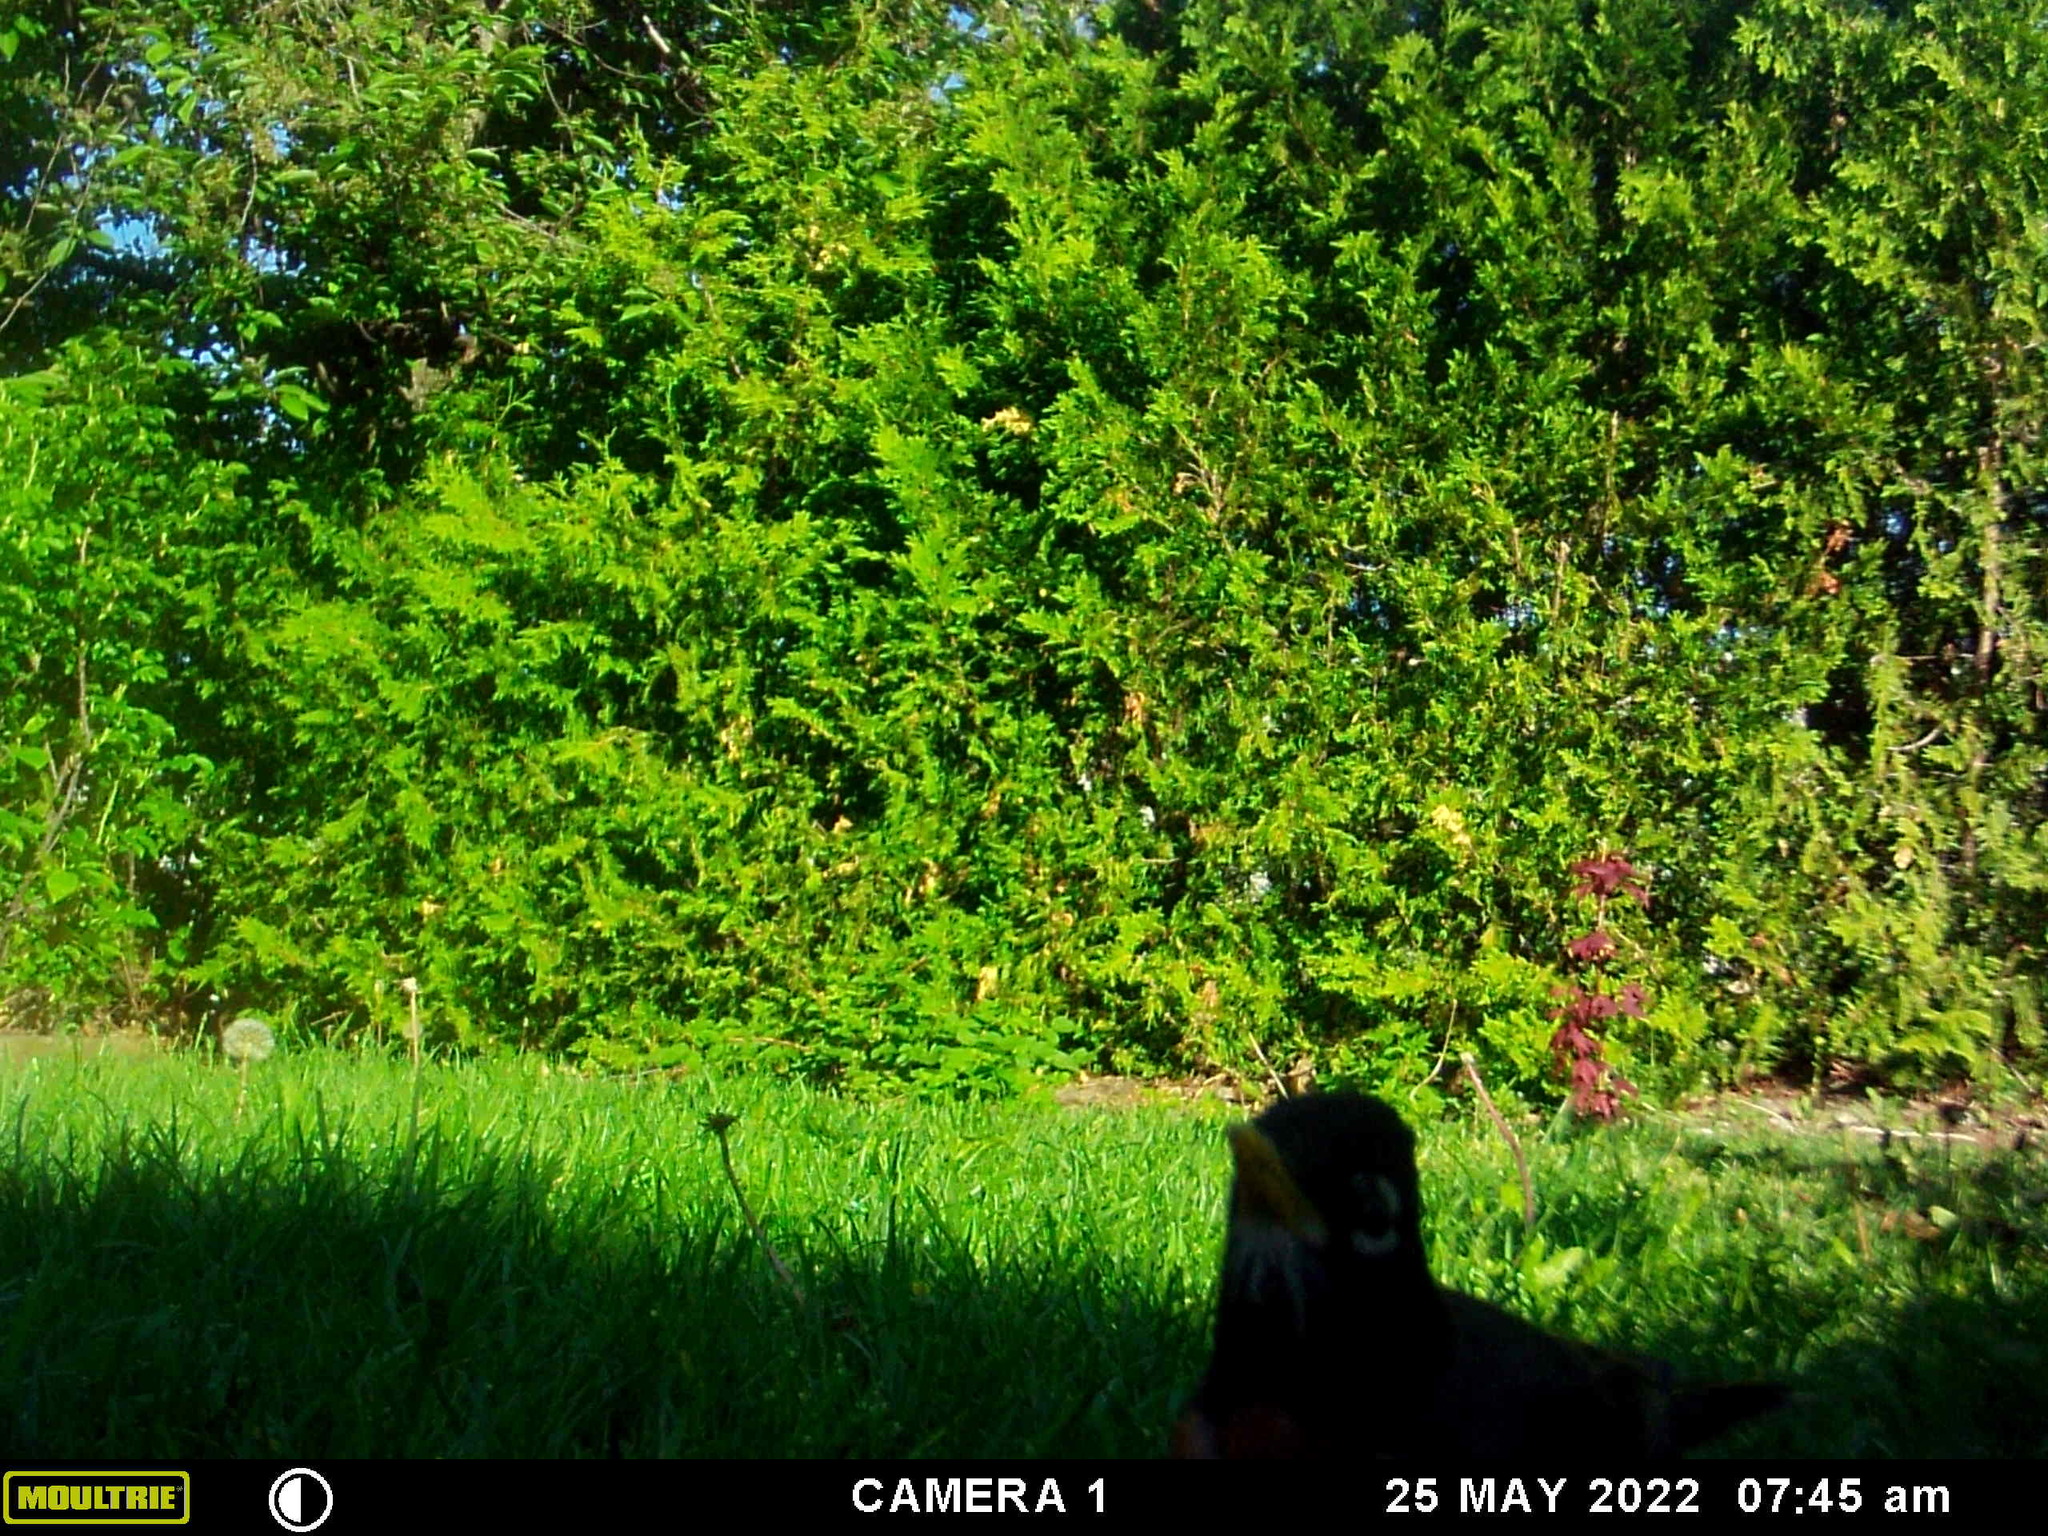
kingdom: Animalia
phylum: Chordata
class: Aves
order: Passeriformes
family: Turdidae
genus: Turdus
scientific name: Turdus migratorius
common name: American robin
